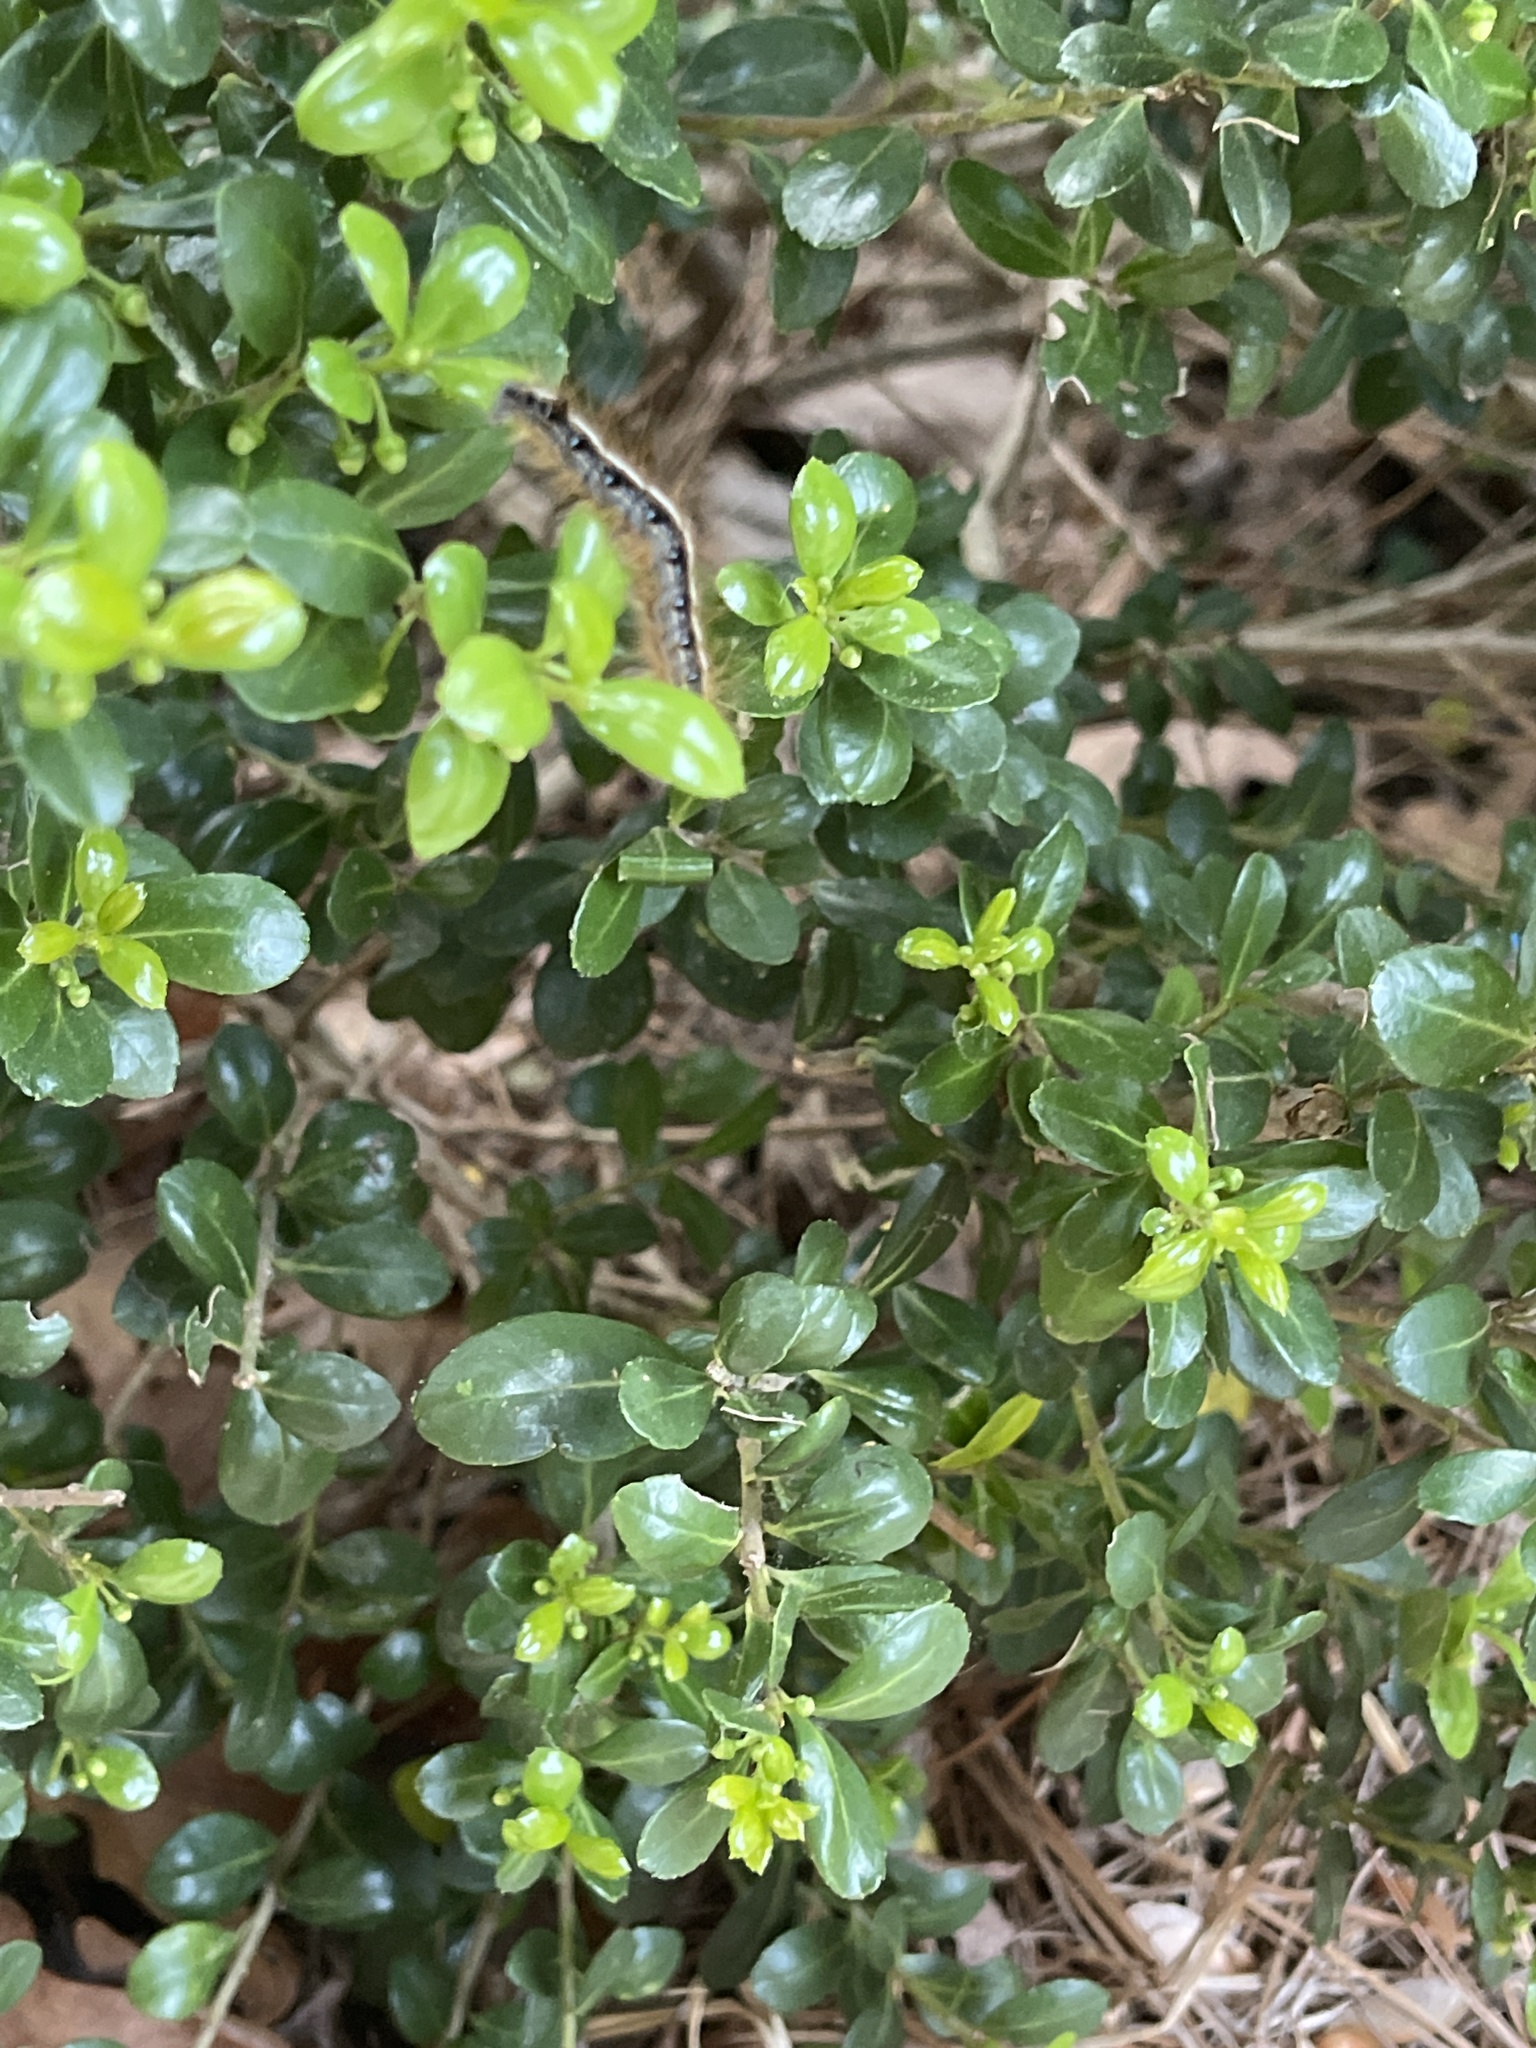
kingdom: Animalia
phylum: Arthropoda
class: Insecta
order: Lepidoptera
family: Lasiocampidae
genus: Malacosoma
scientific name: Malacosoma americana
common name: Eastern tent caterpillar moth
